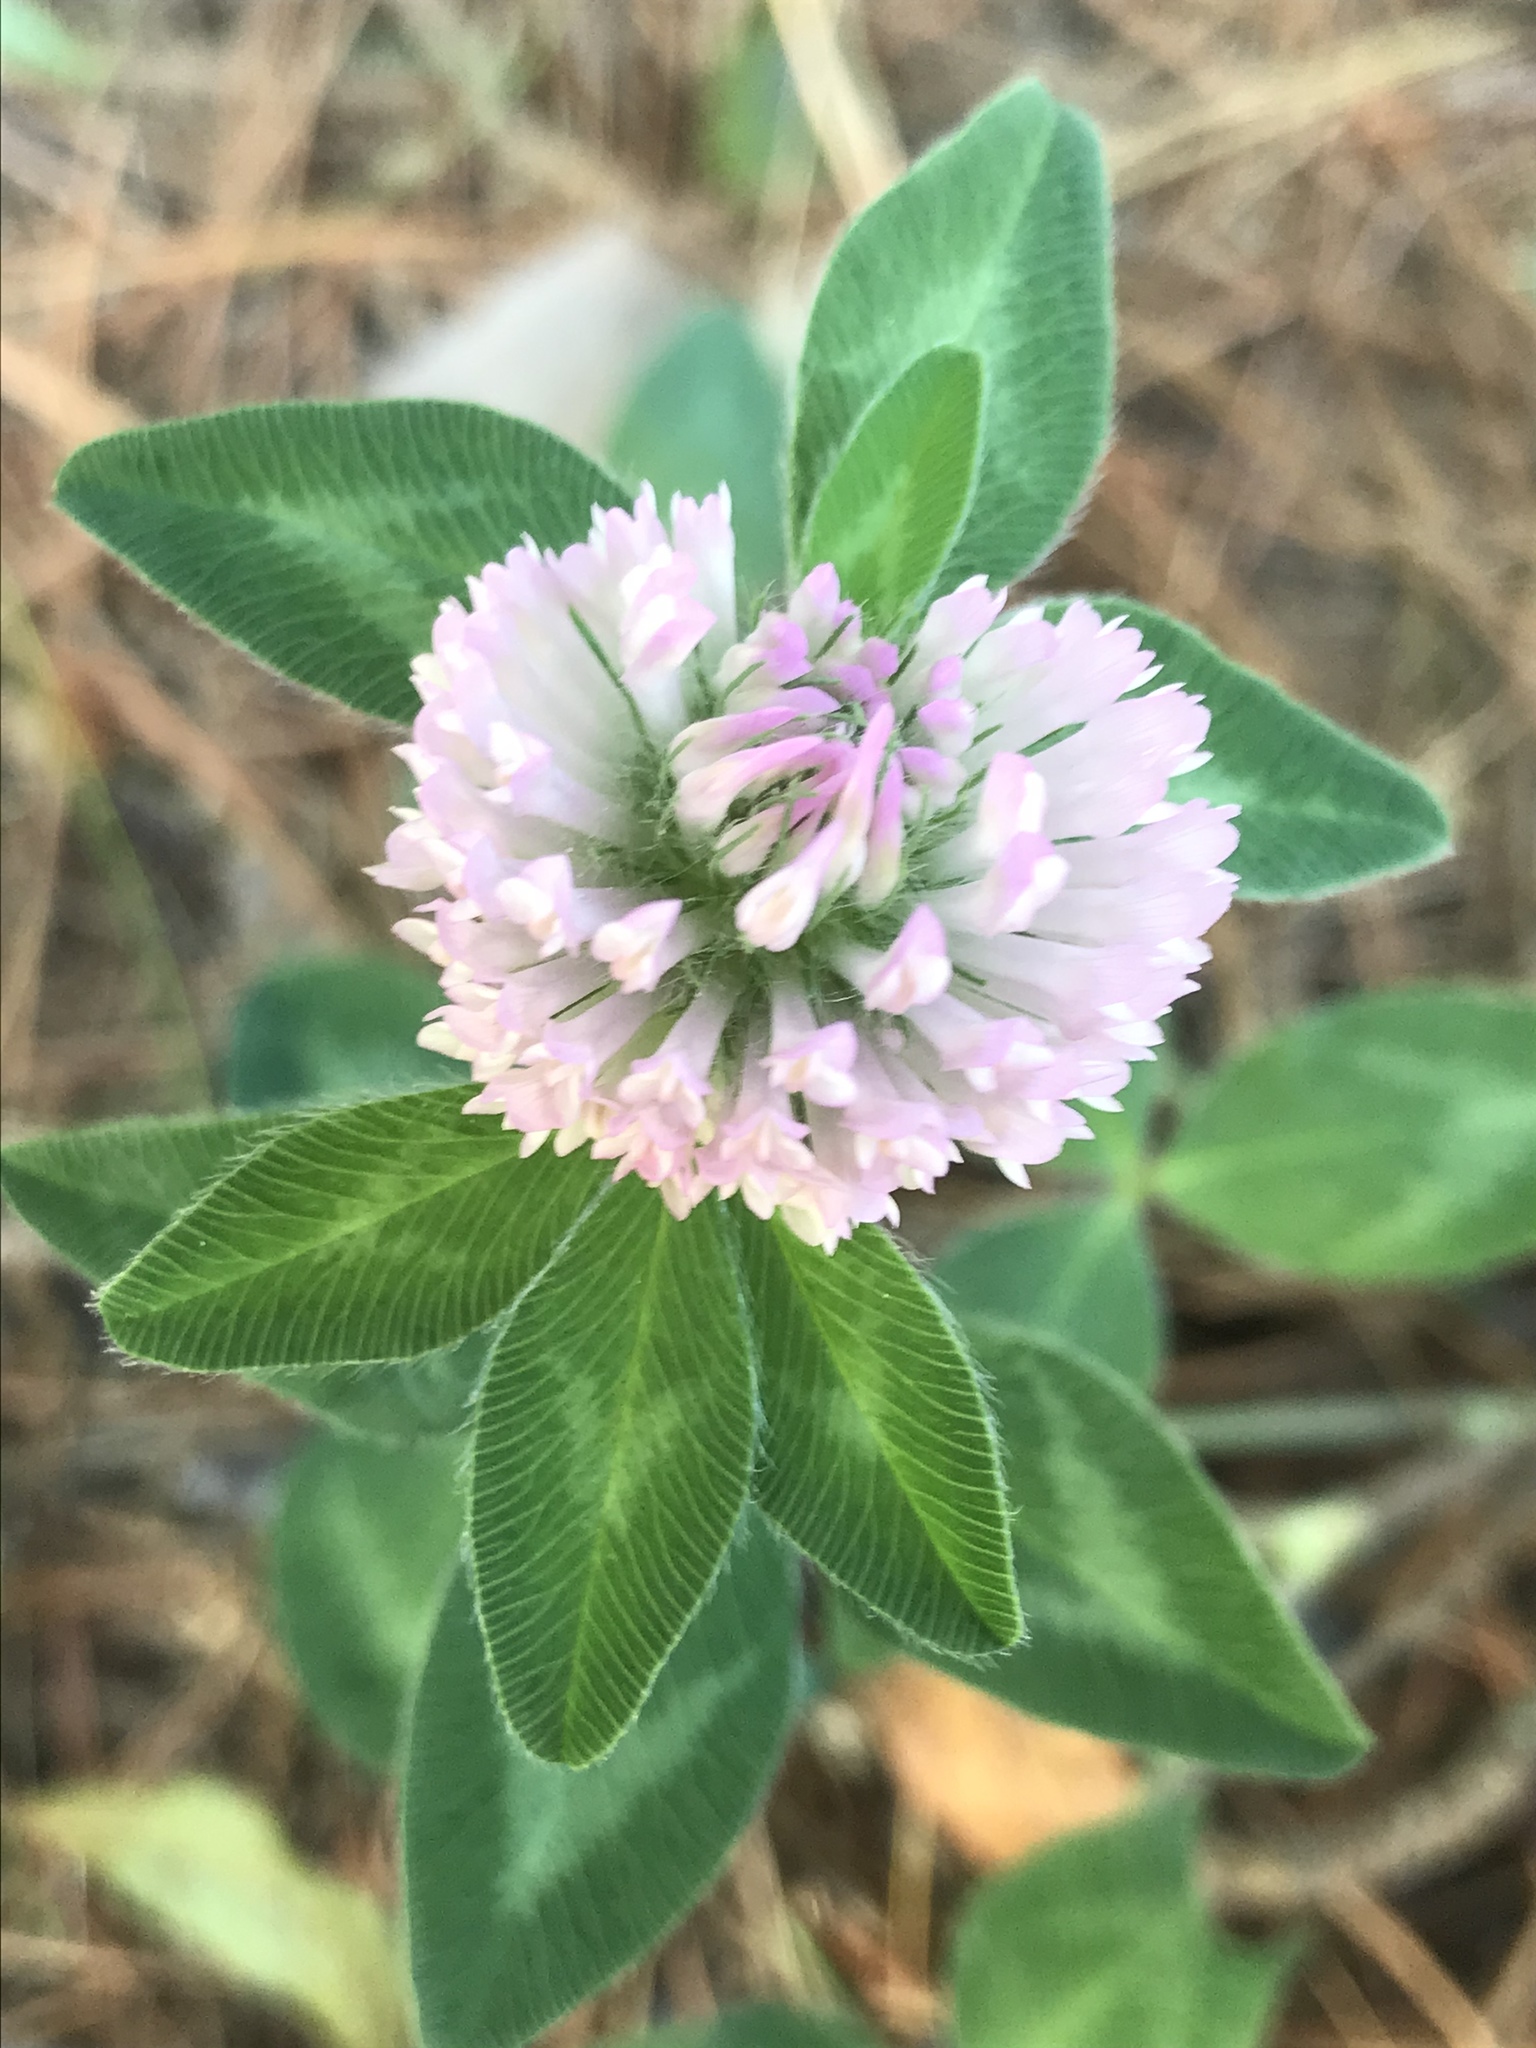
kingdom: Plantae
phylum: Tracheophyta
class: Magnoliopsida
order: Fabales
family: Fabaceae
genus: Trifolium
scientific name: Trifolium pratense
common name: Red clover
